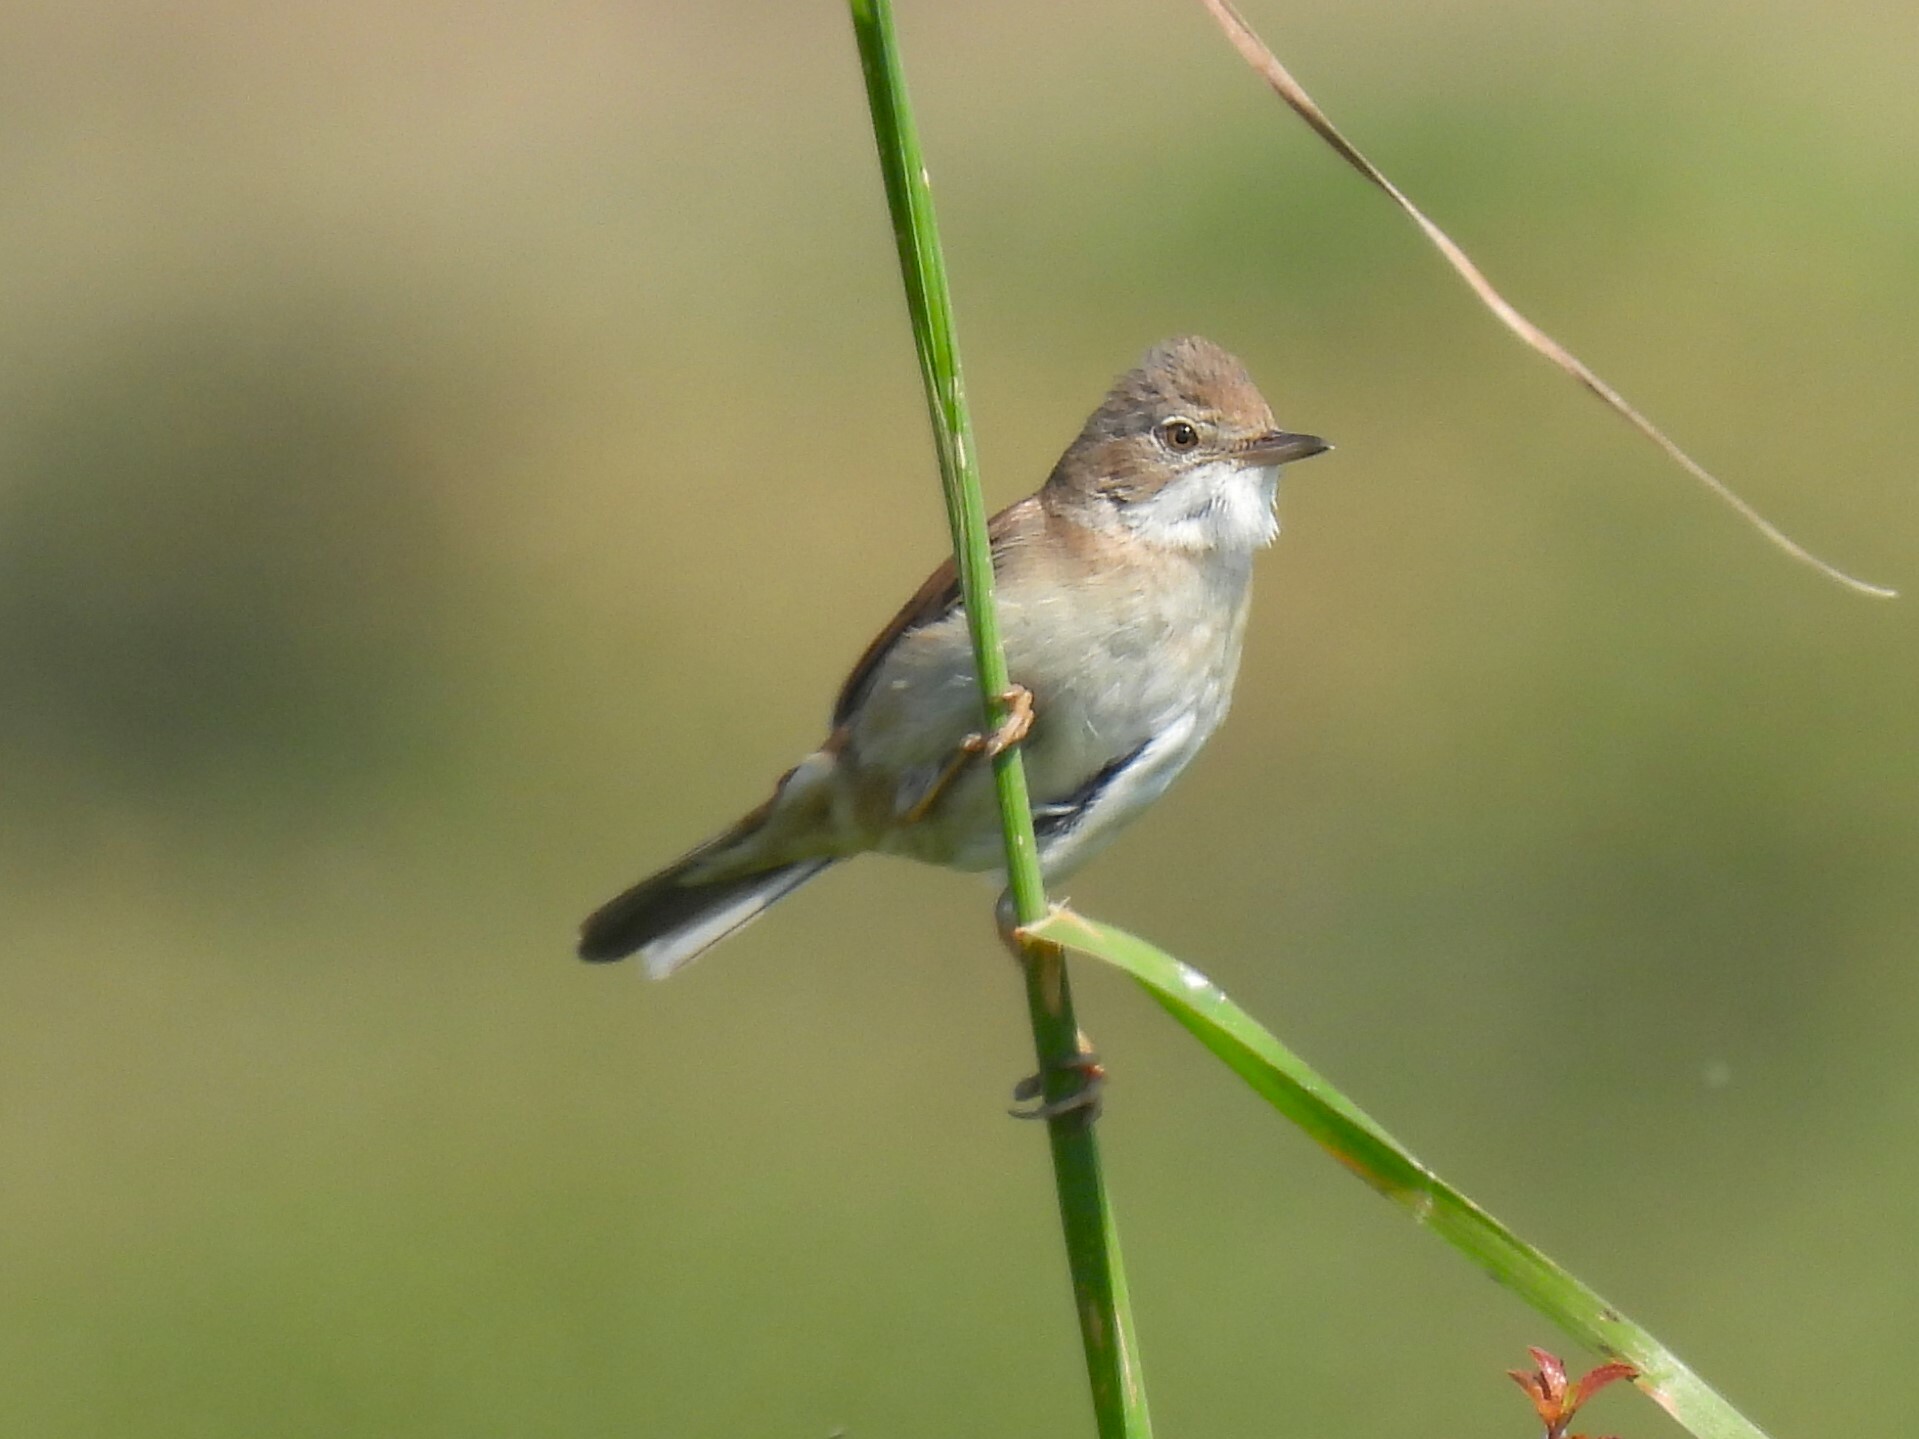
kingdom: Animalia
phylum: Chordata
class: Aves
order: Passeriformes
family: Sylviidae
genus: Sylvia
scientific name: Sylvia communis
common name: Common whitethroat
